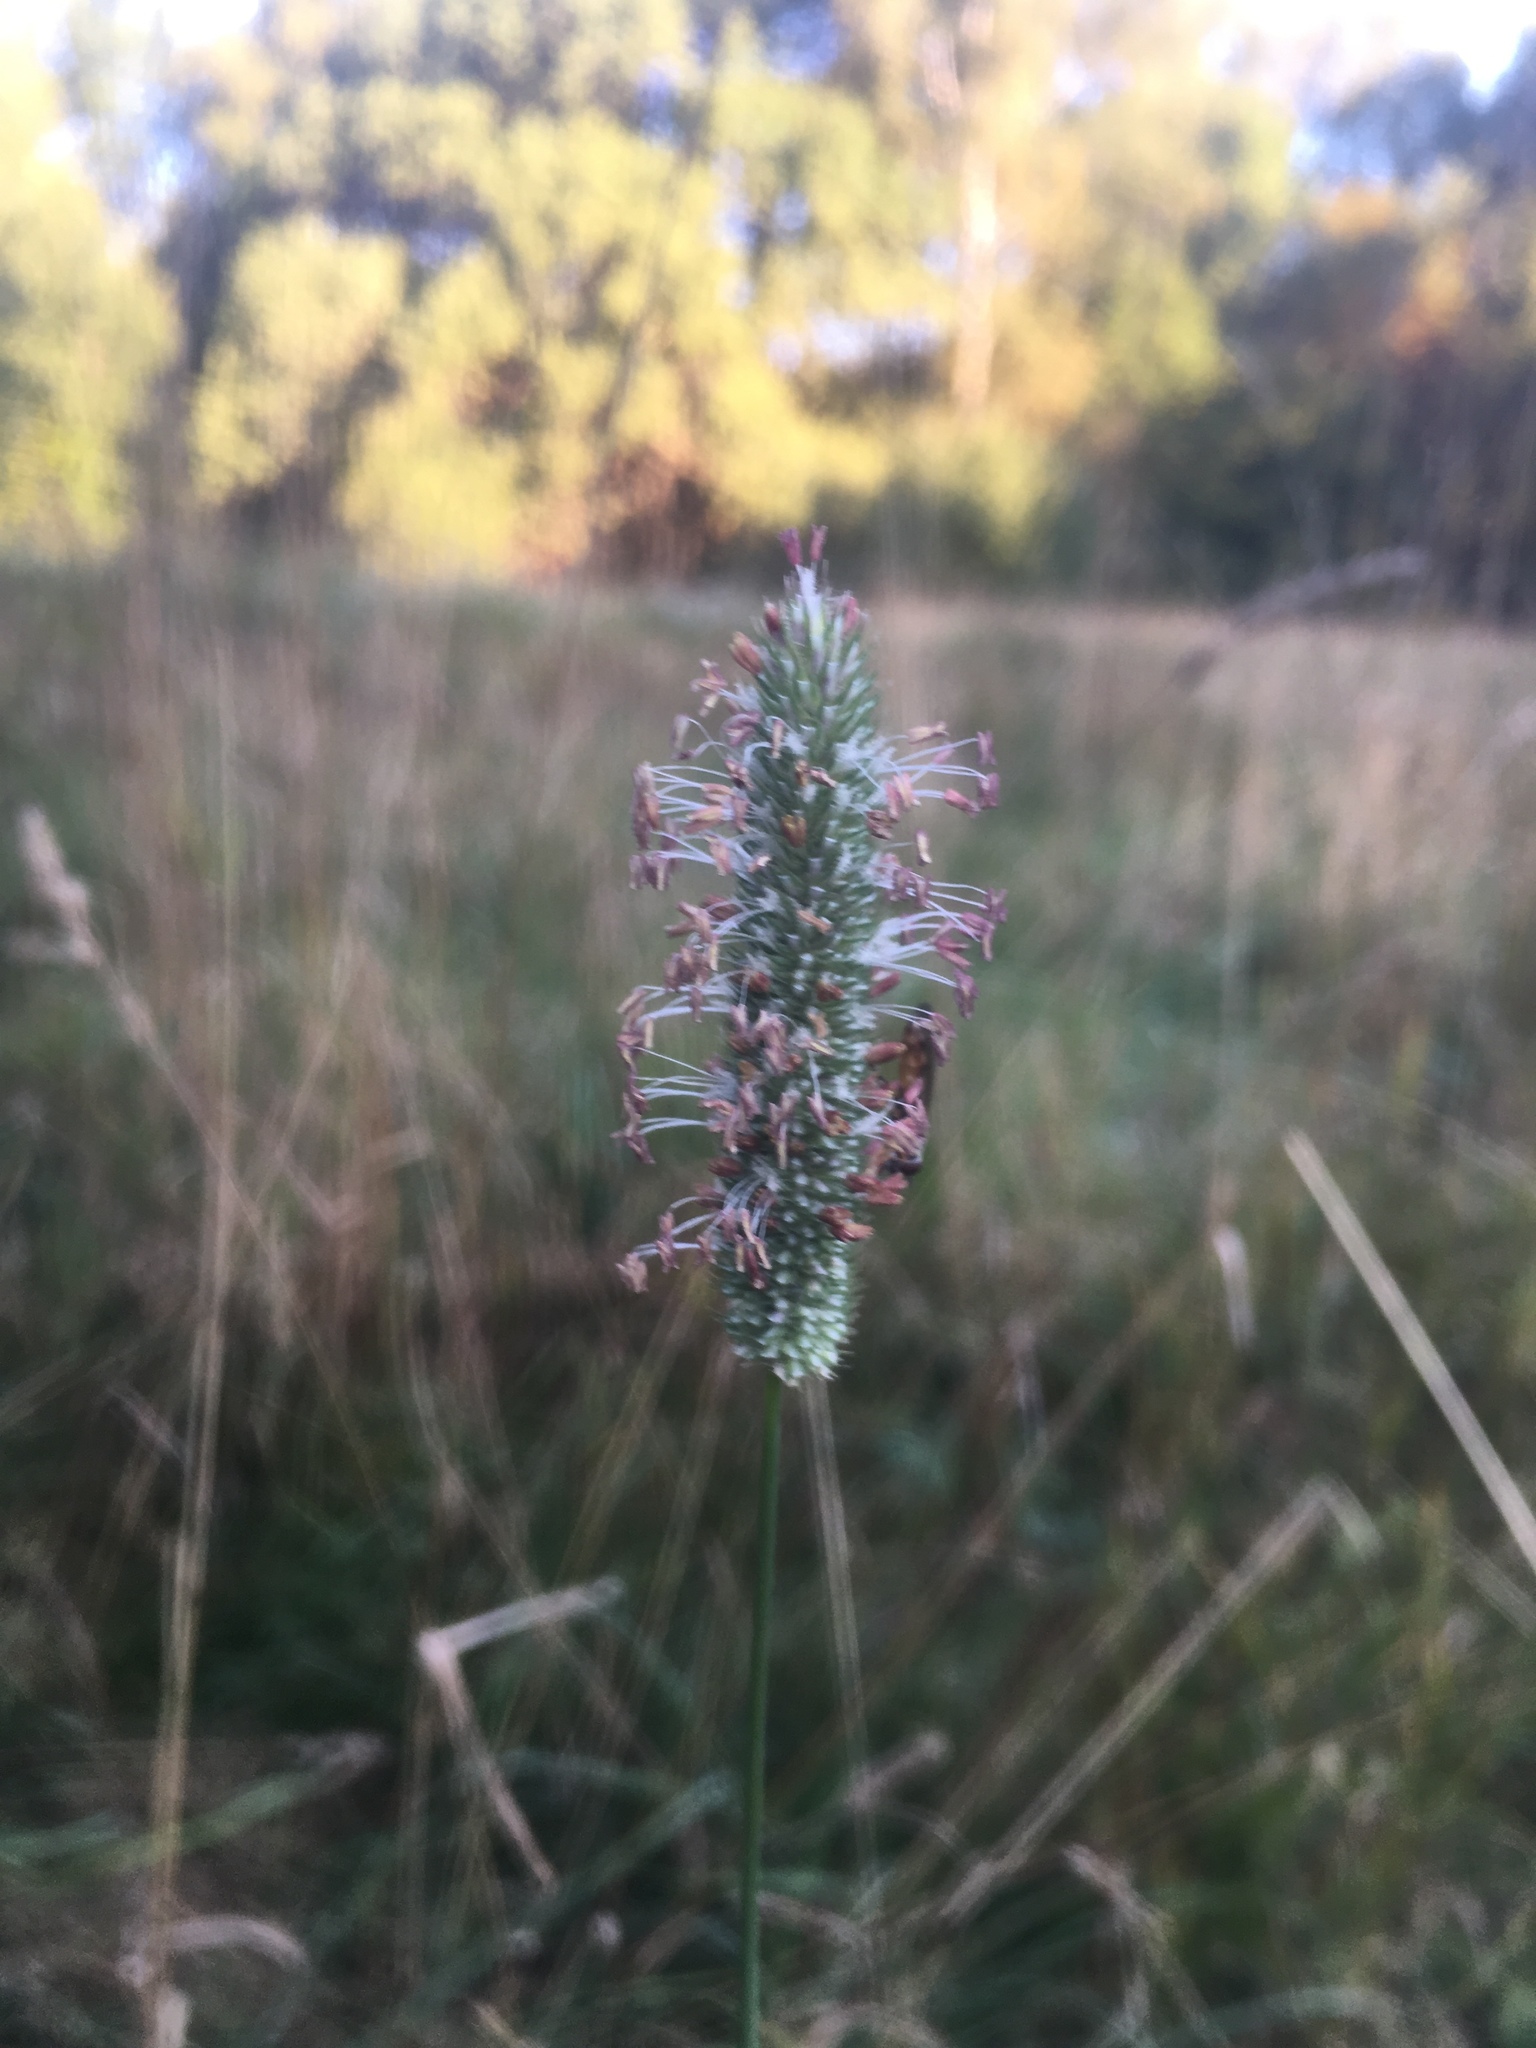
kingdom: Plantae
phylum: Tracheophyta
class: Liliopsida
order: Poales
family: Poaceae
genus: Phleum
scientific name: Phleum pratense
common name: Timothy grass
